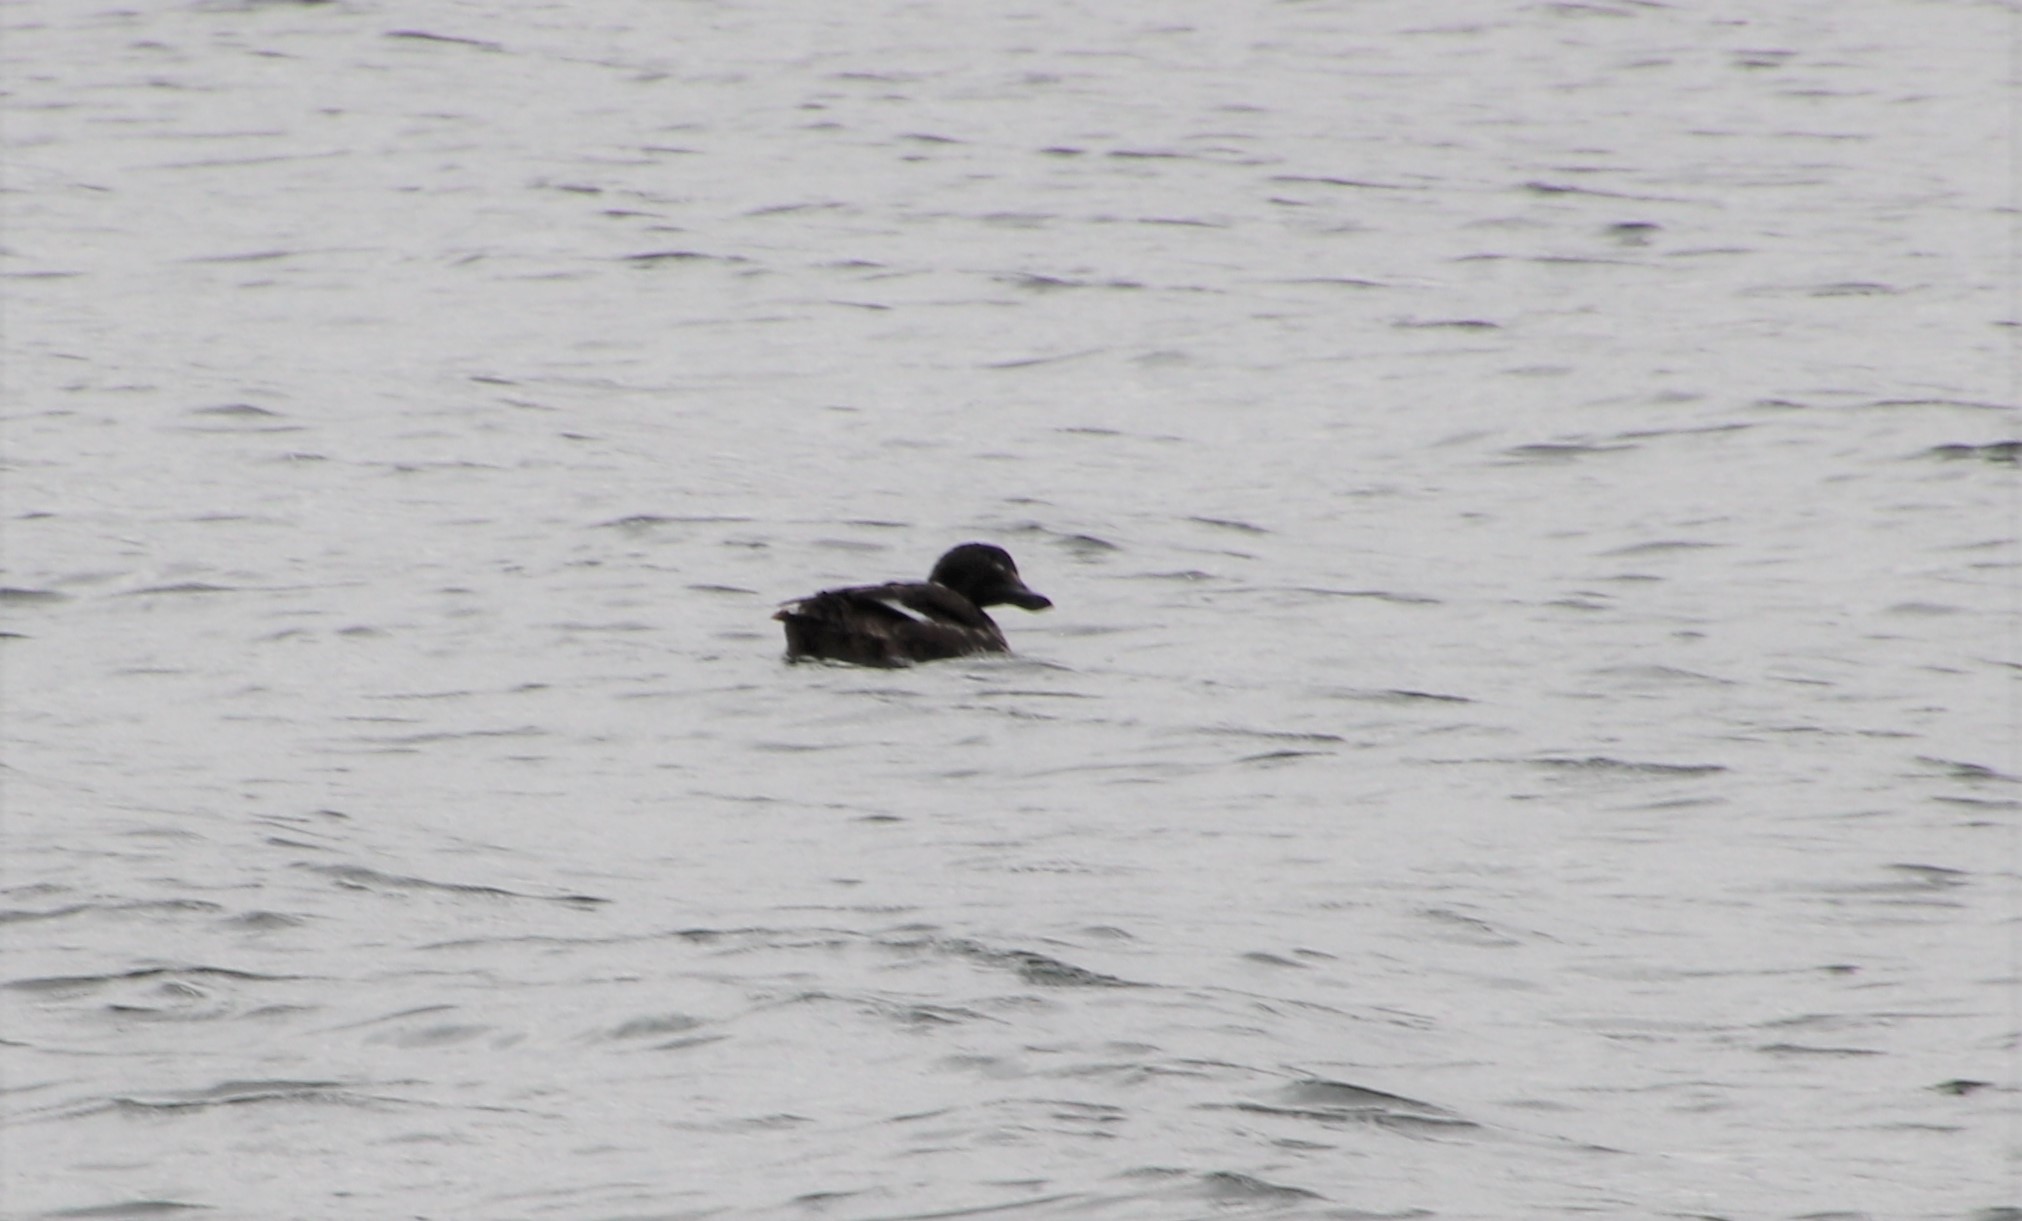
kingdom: Animalia
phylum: Chordata
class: Aves
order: Anseriformes
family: Anatidae
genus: Melanitta
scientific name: Melanitta deglandi
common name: White-winged scoter
